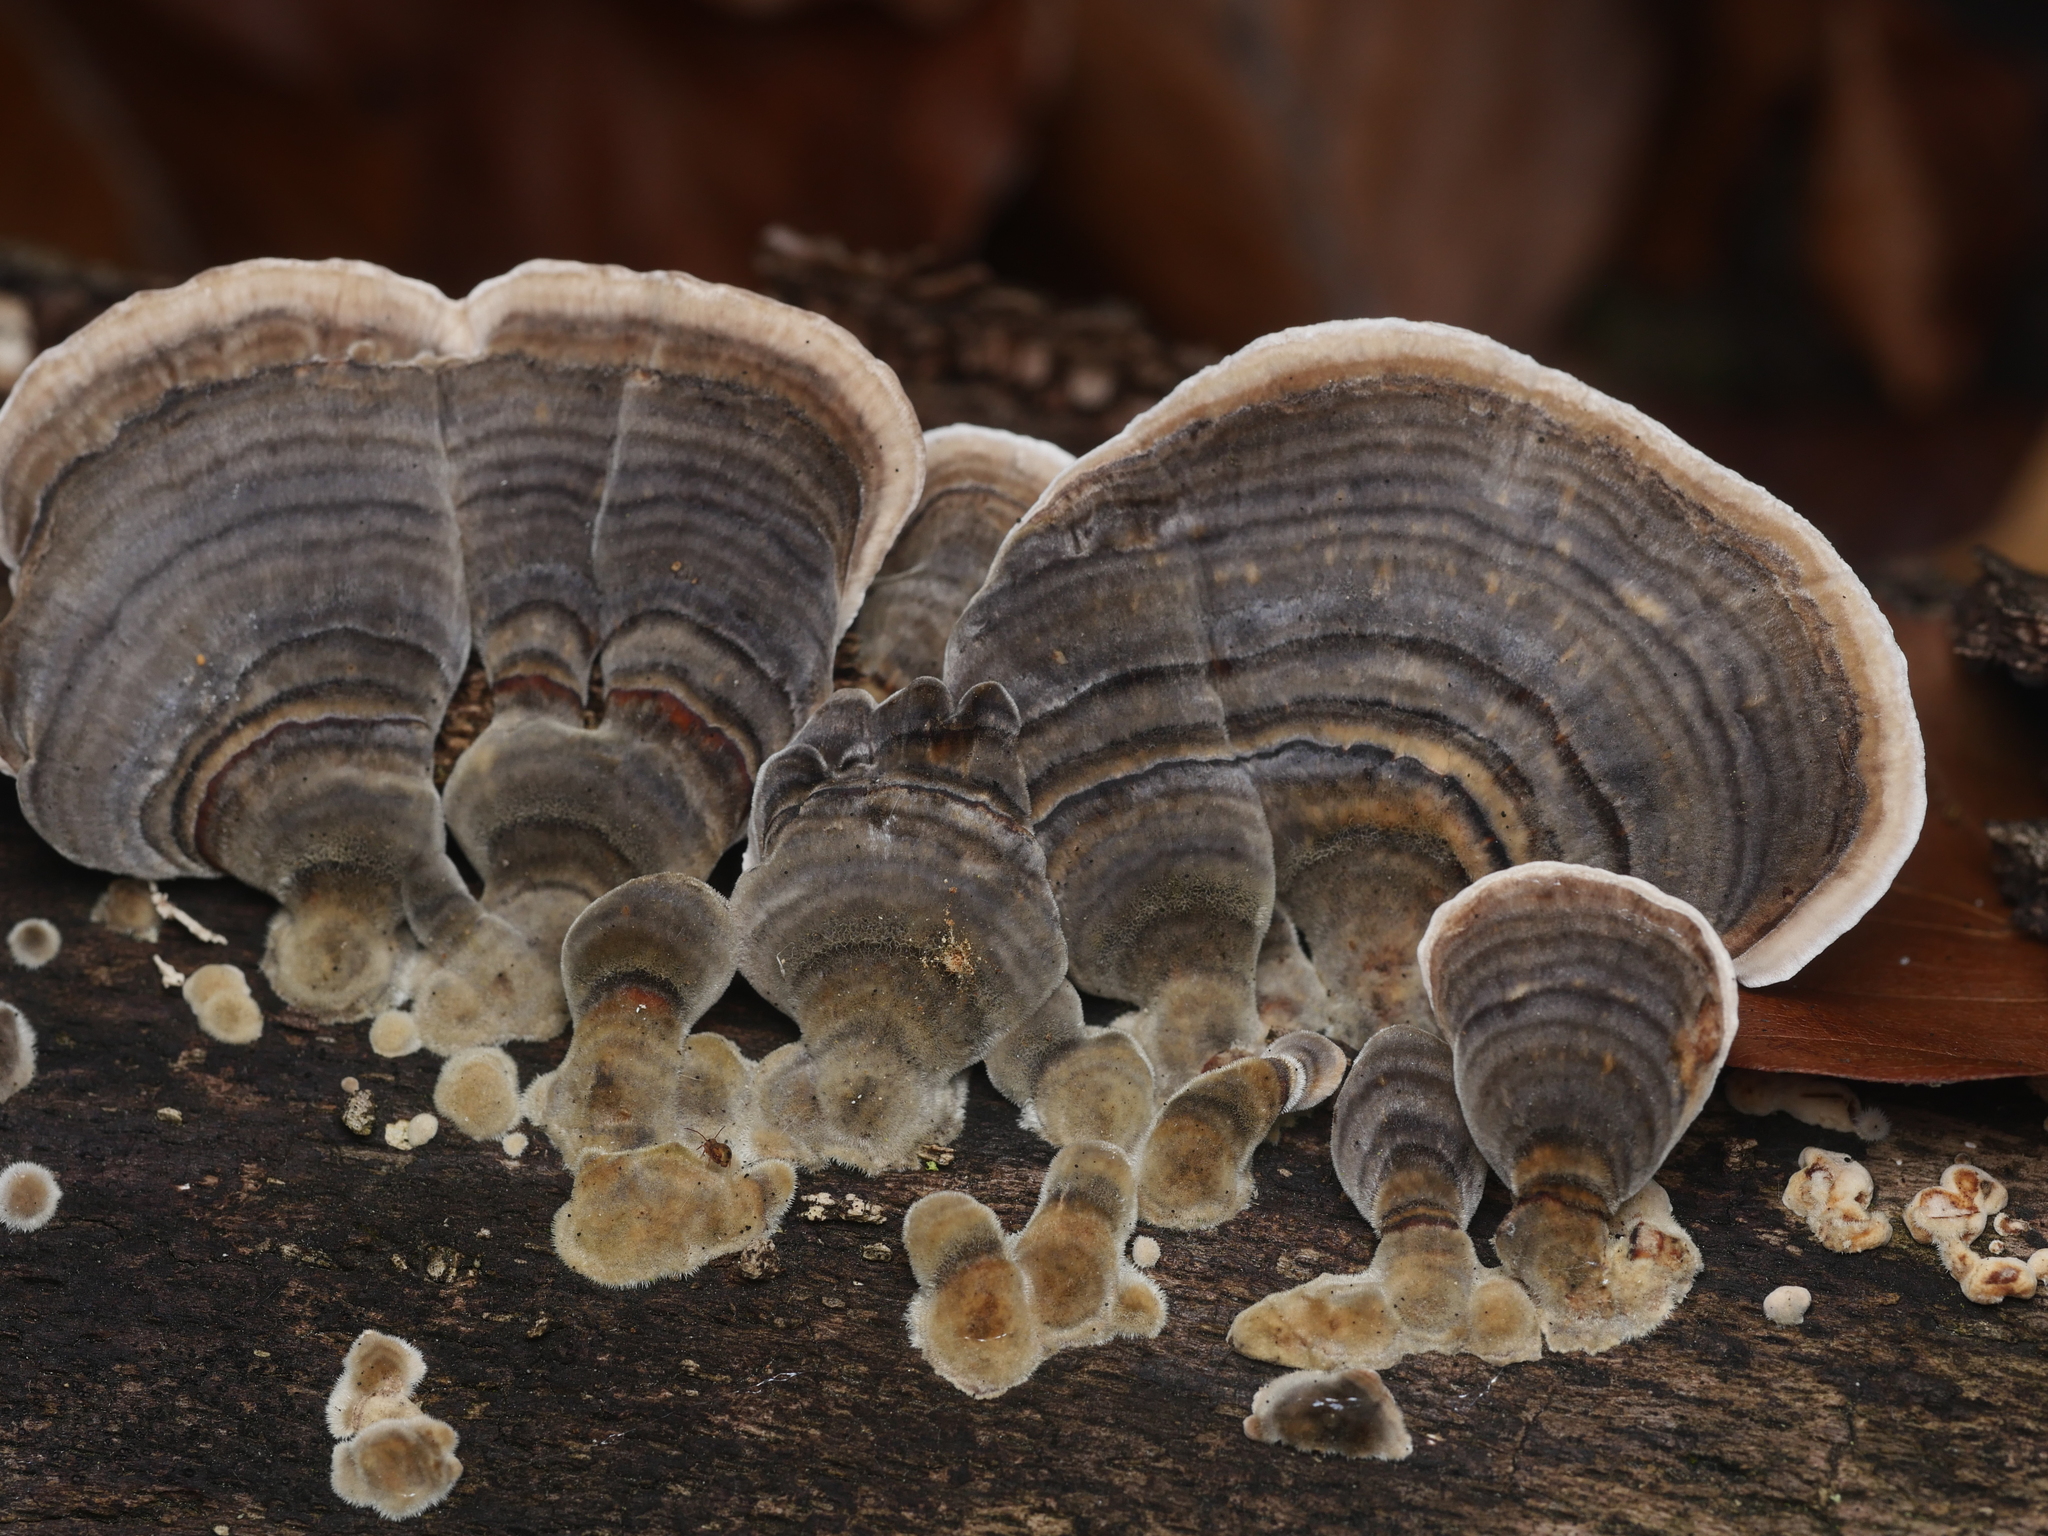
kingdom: Fungi
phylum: Basidiomycota
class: Agaricomycetes
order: Polyporales
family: Polyporaceae
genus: Trametes
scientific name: Trametes versicolor
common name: Turkeytail
